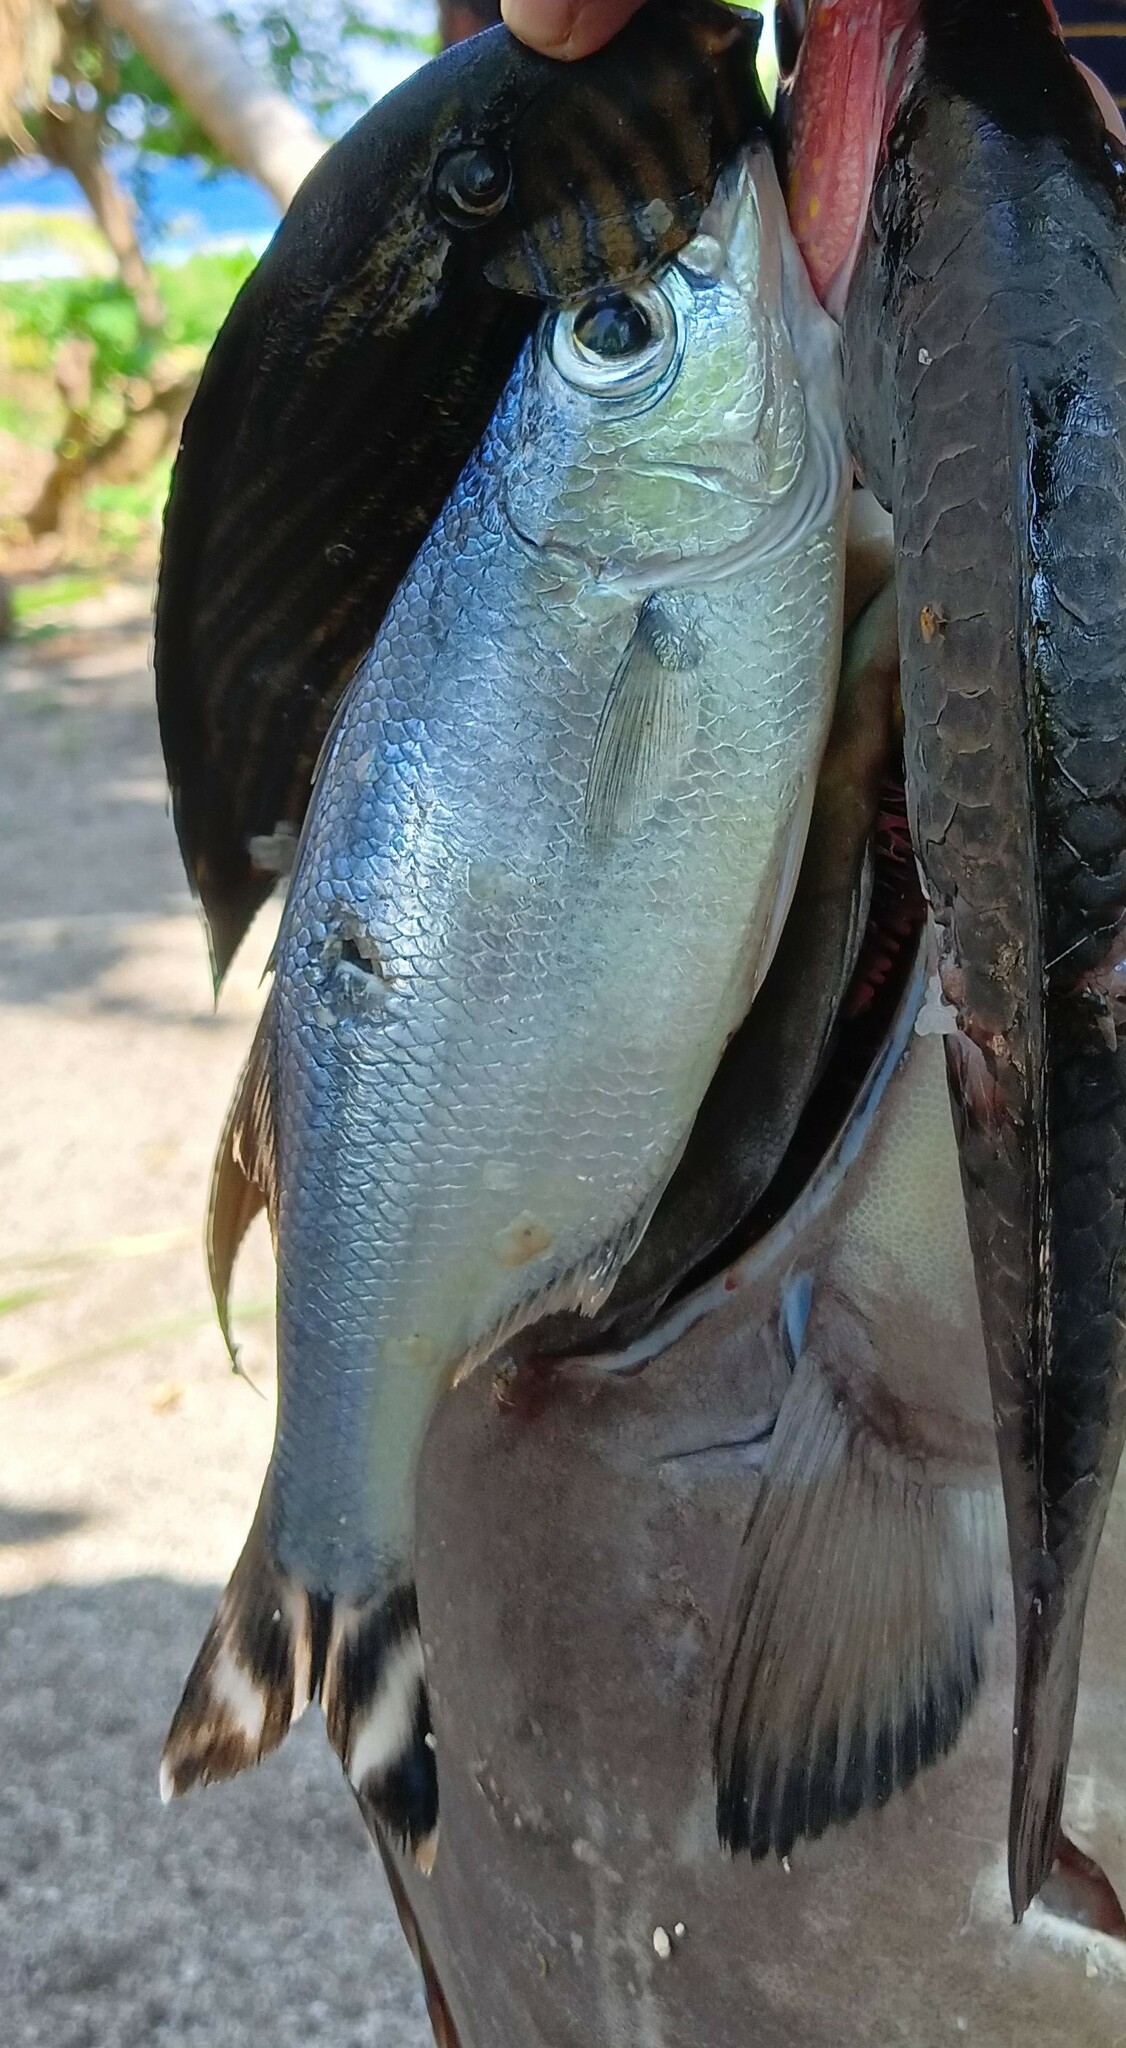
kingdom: Animalia
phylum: Chordata
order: Perciformes
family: Kuhliidae
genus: Kuhlia
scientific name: Kuhlia mugil
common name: Barred flagtail
